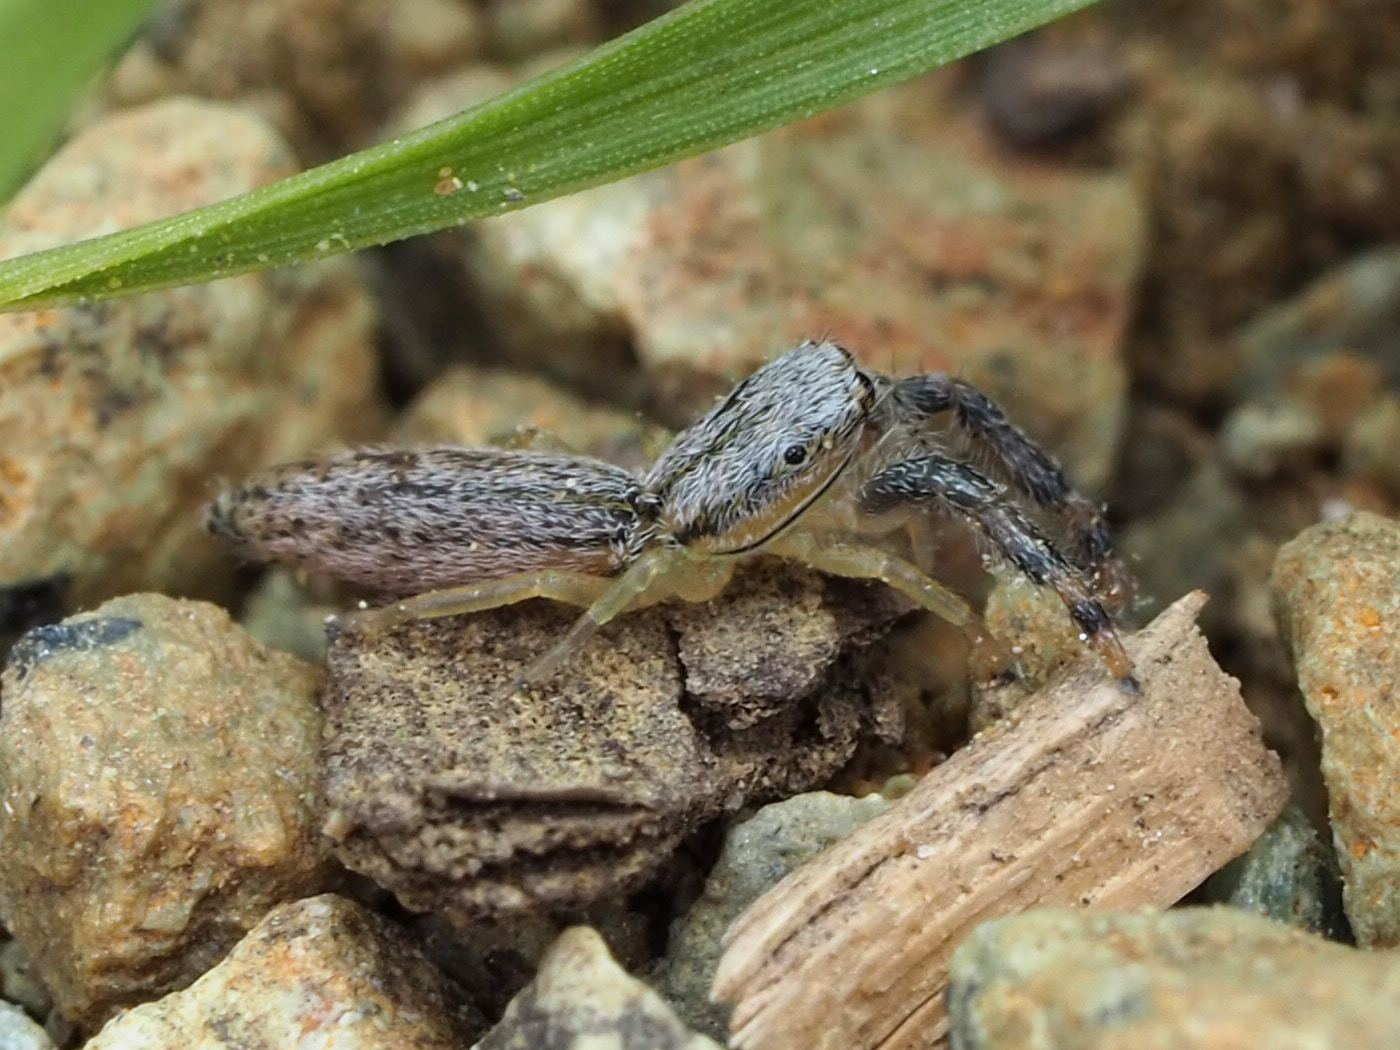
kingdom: Animalia
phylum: Arthropoda
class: Arachnida
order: Araneae
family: Salticidae
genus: Marpissa
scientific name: Marpissa pikei
